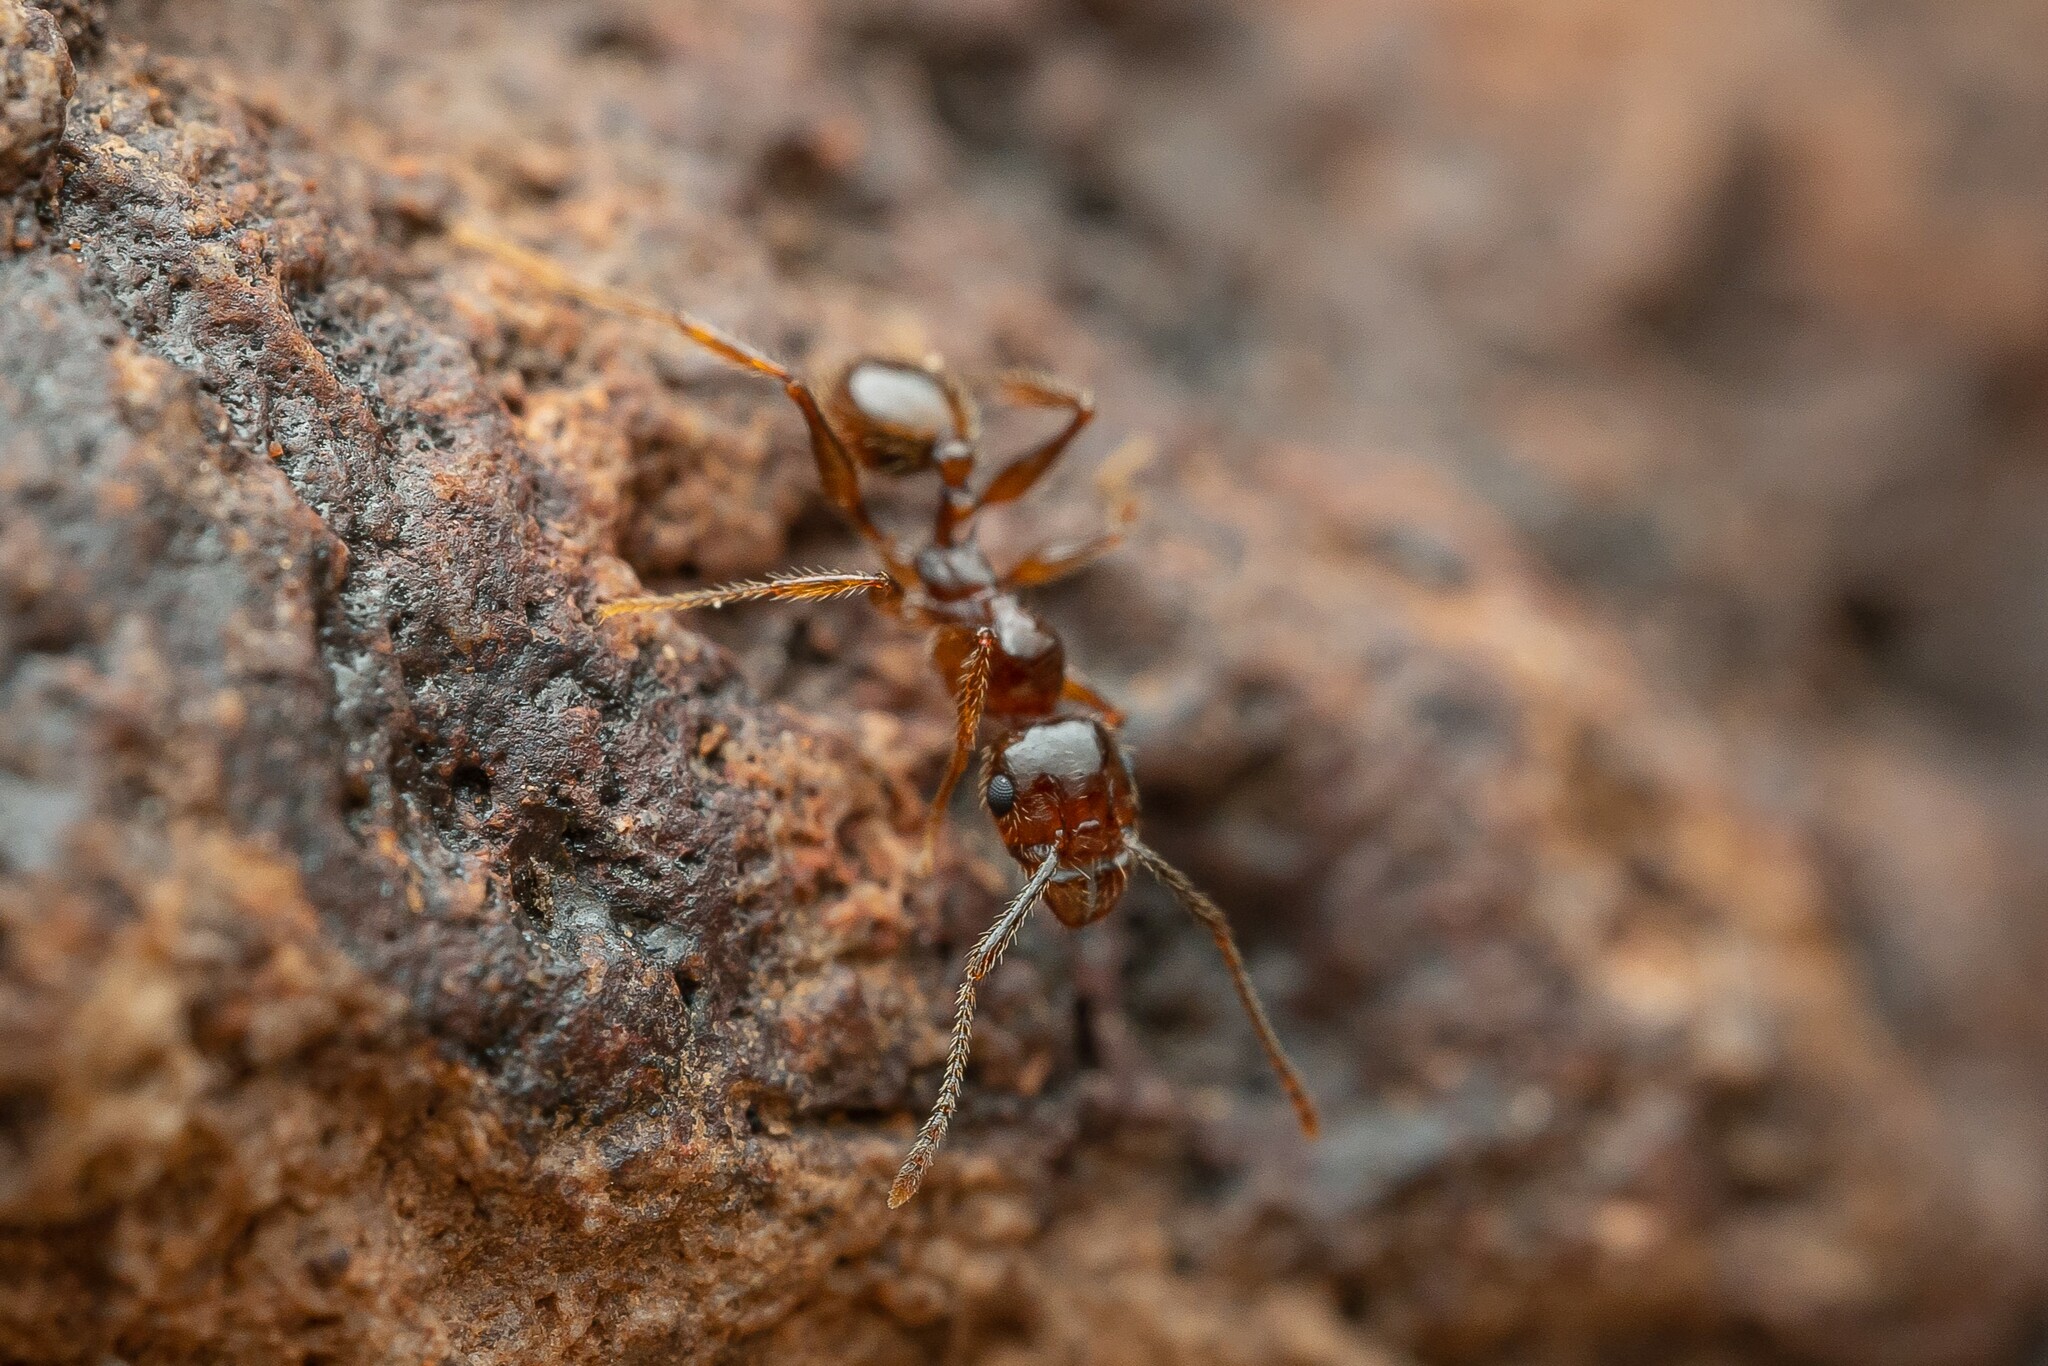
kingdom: Animalia
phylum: Arthropoda
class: Insecta
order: Hymenoptera
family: Formicidae
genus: Pheidole
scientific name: Pheidole titanis
